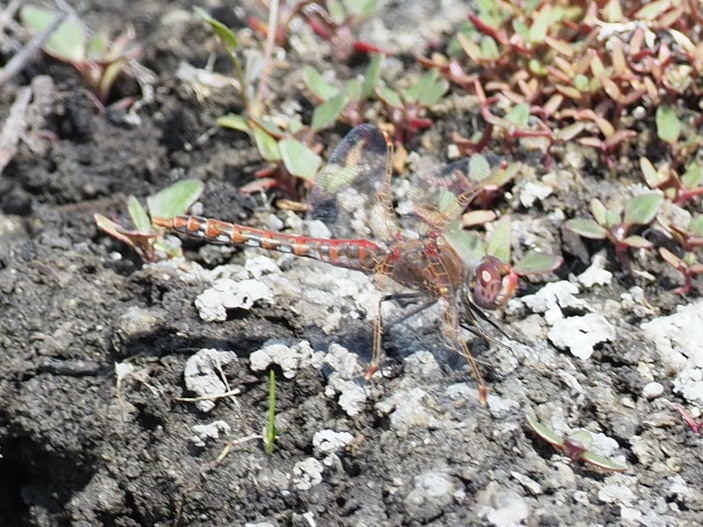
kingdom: Animalia
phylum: Arthropoda
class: Insecta
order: Odonata
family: Libellulidae
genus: Sympetrum
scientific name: Sympetrum corruptum
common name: Variegated meadowhawk
